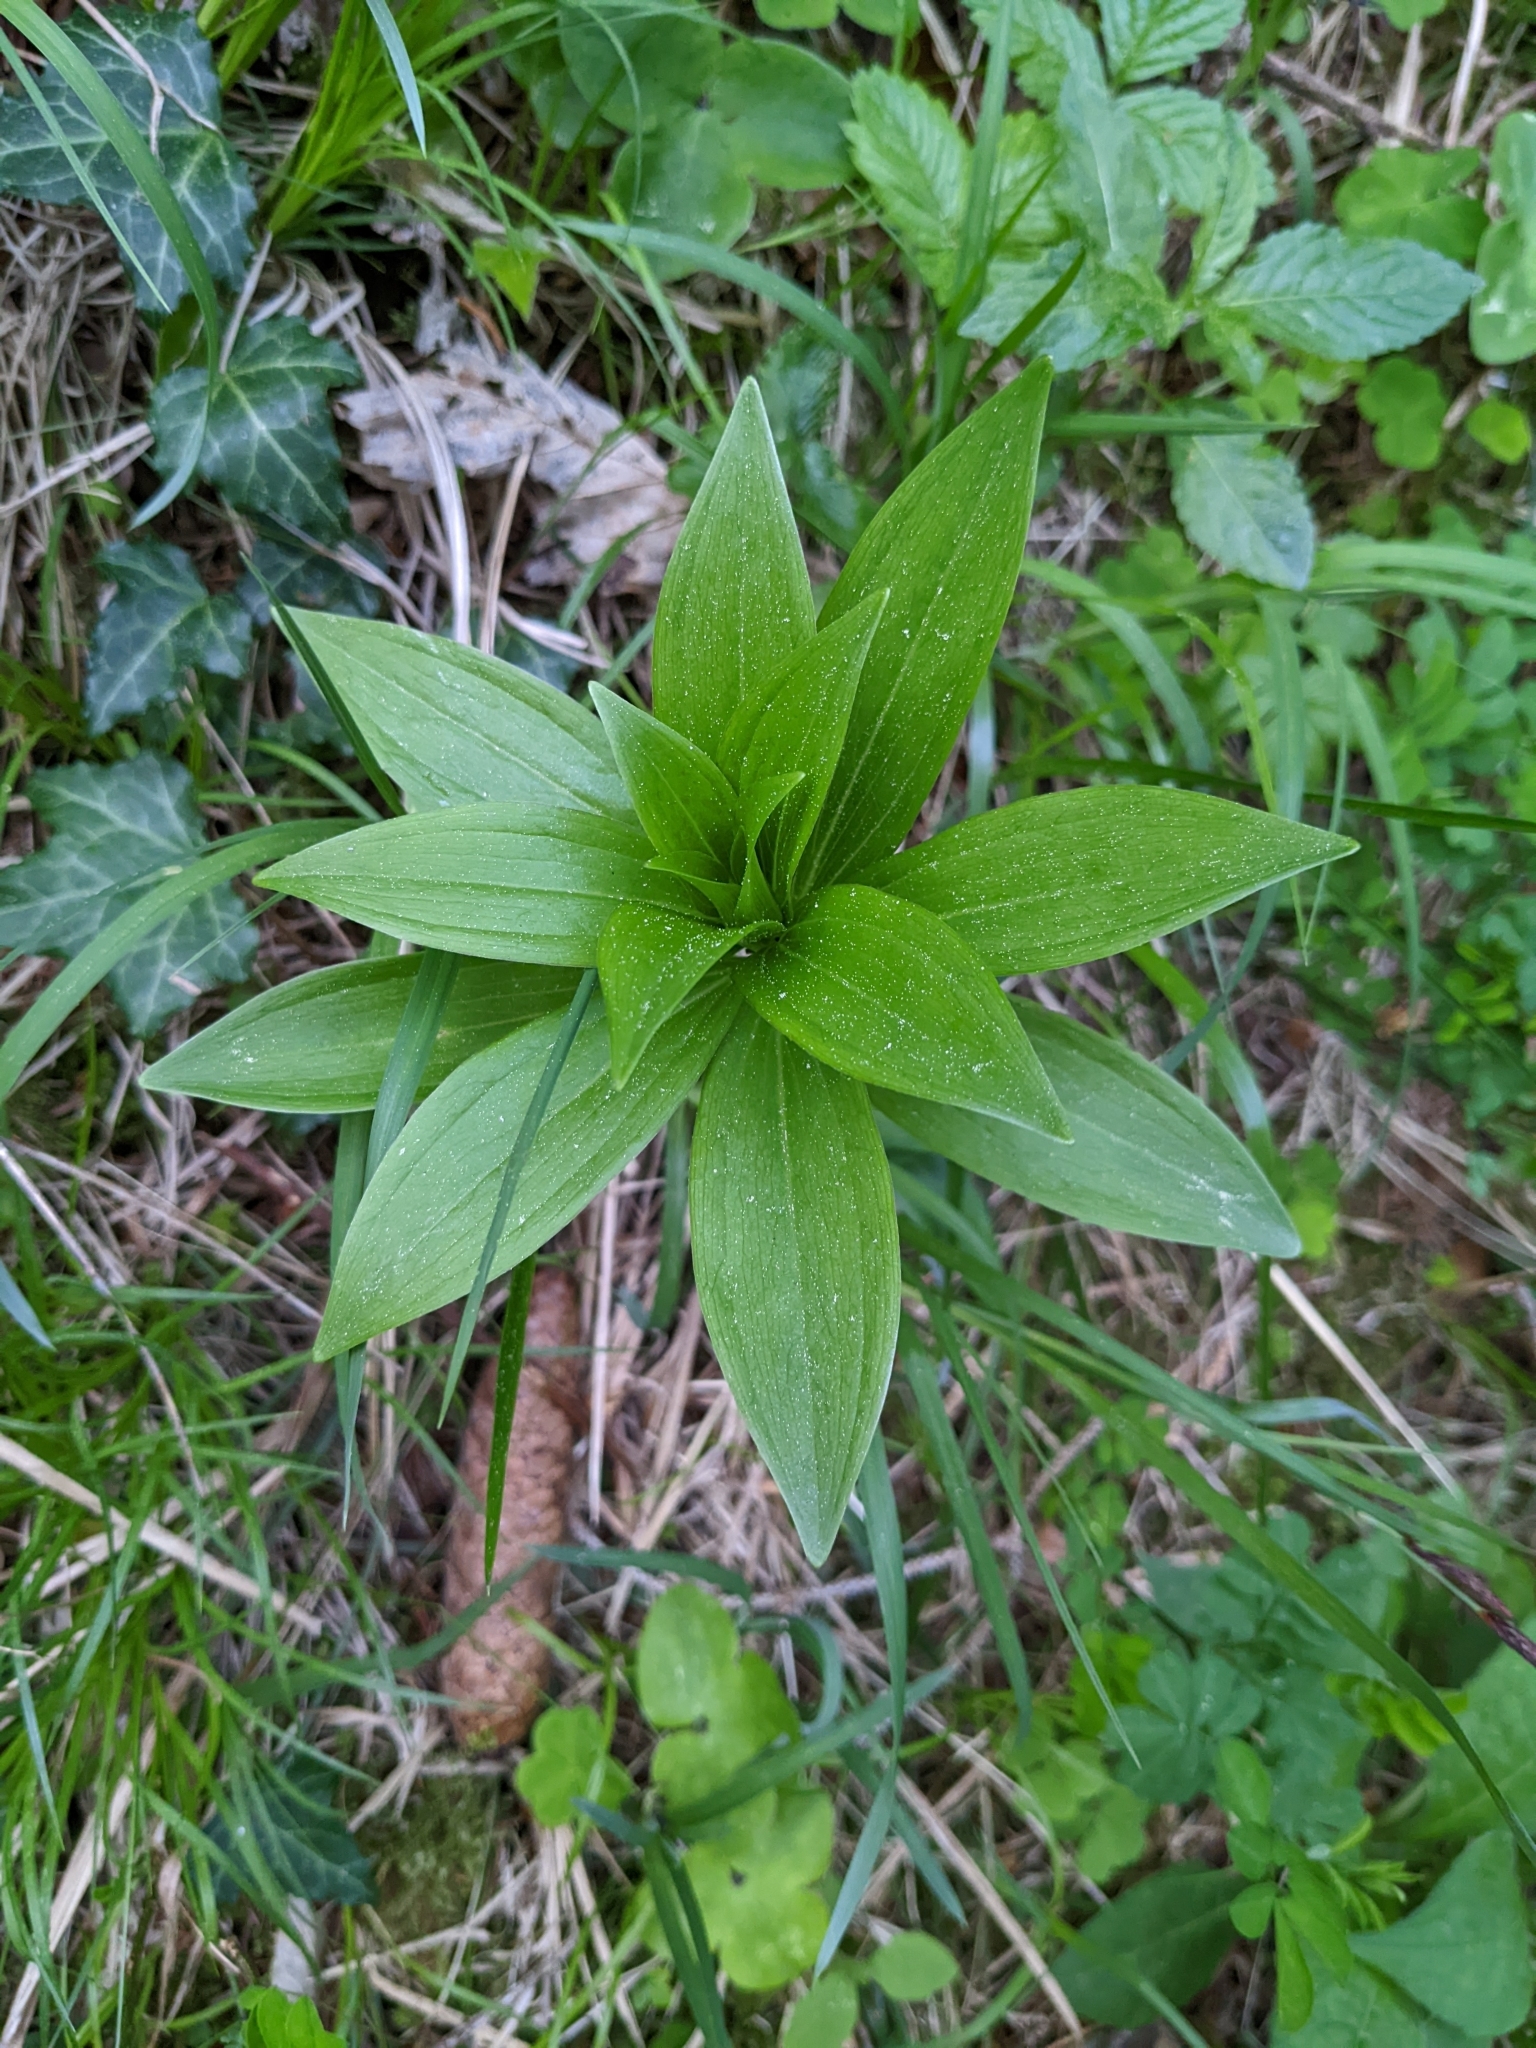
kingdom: Plantae
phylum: Tracheophyta
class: Liliopsida
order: Liliales
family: Liliaceae
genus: Lilium
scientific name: Lilium martagon
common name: Martagon lily
